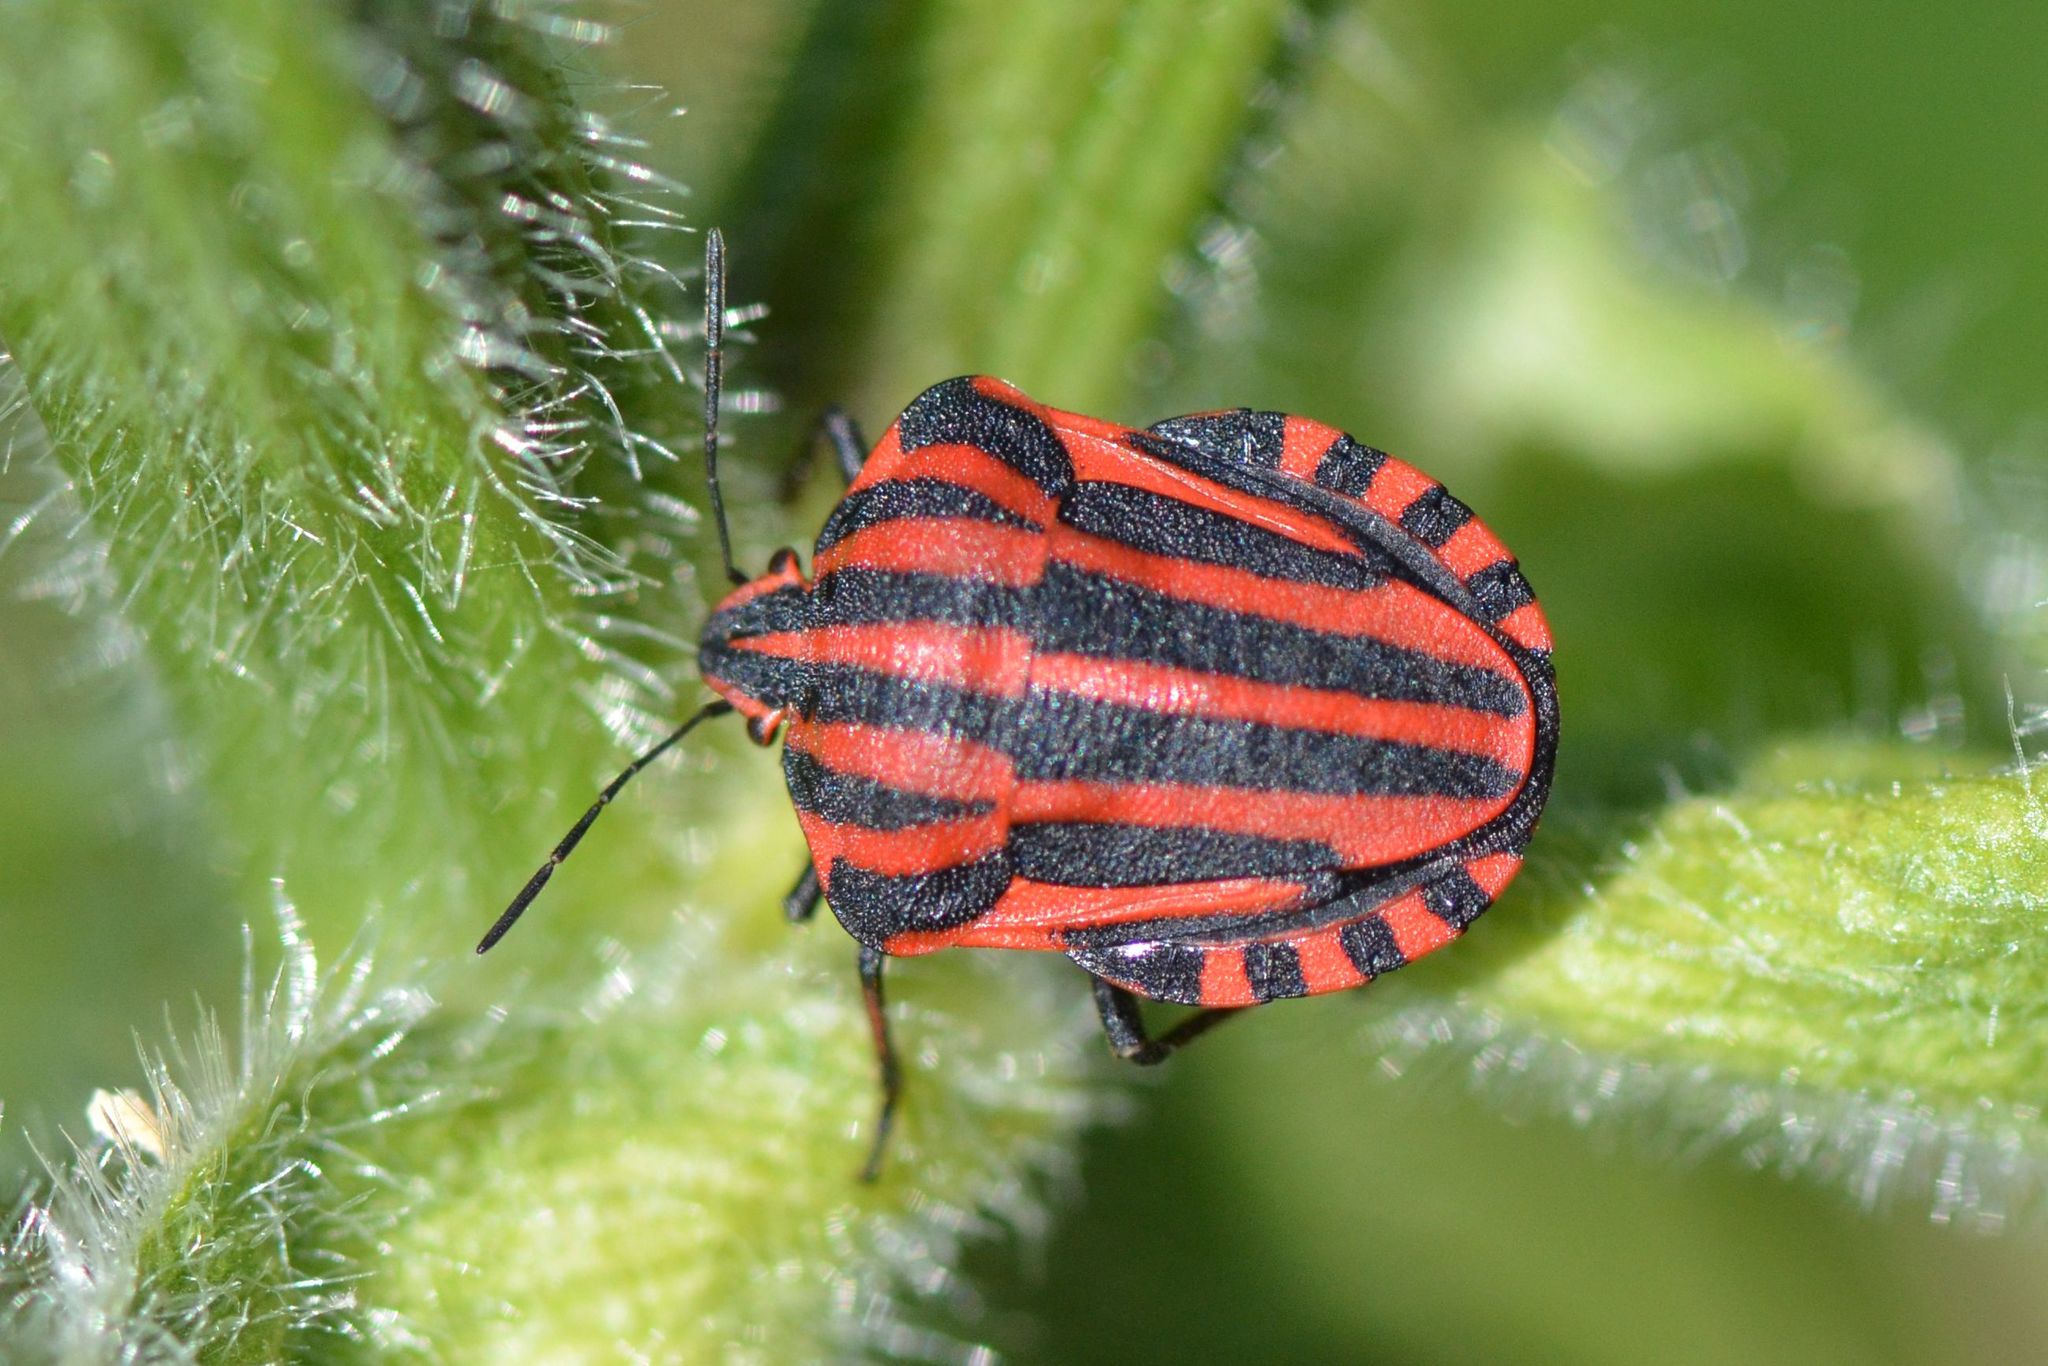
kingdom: Animalia
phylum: Arthropoda
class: Insecta
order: Hemiptera
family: Pentatomidae
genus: Graphosoma
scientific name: Graphosoma italicum
